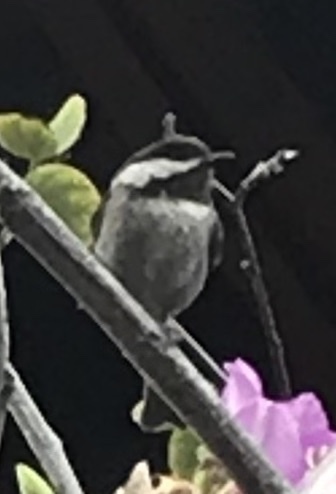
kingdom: Animalia
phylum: Chordata
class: Aves
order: Passeriformes
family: Paridae
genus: Poecile
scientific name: Poecile rufescens
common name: Chestnut-backed chickadee
